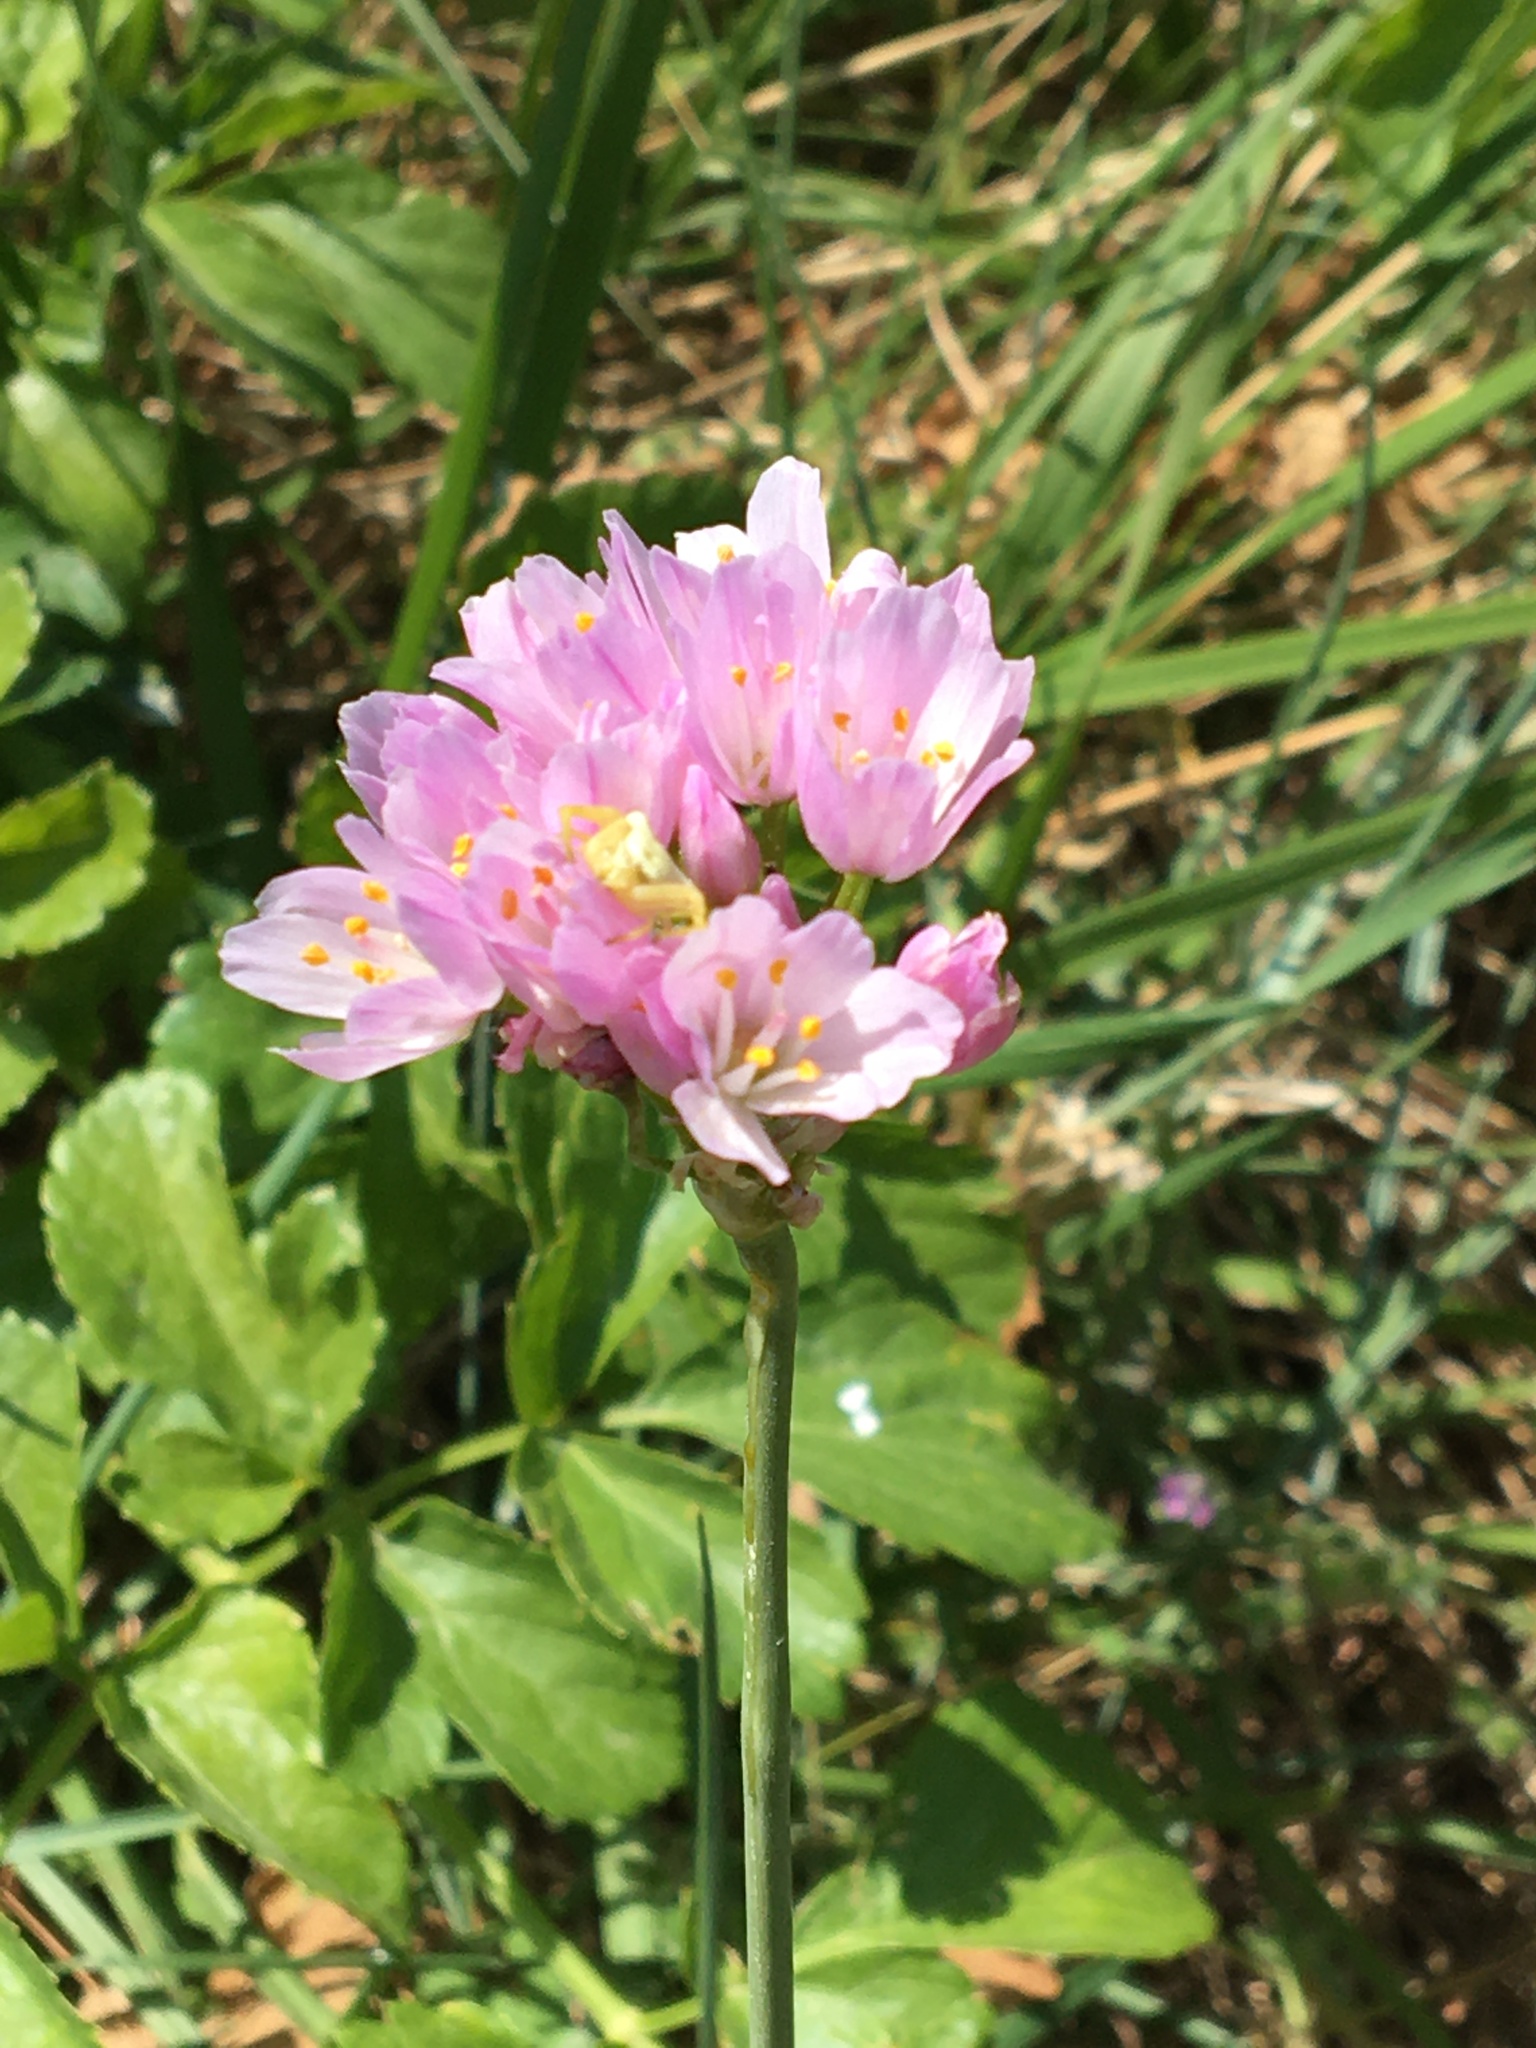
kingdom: Plantae
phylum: Tracheophyta
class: Liliopsida
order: Asparagales
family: Amaryllidaceae
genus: Allium
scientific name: Allium roseum
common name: Rosy garlic
